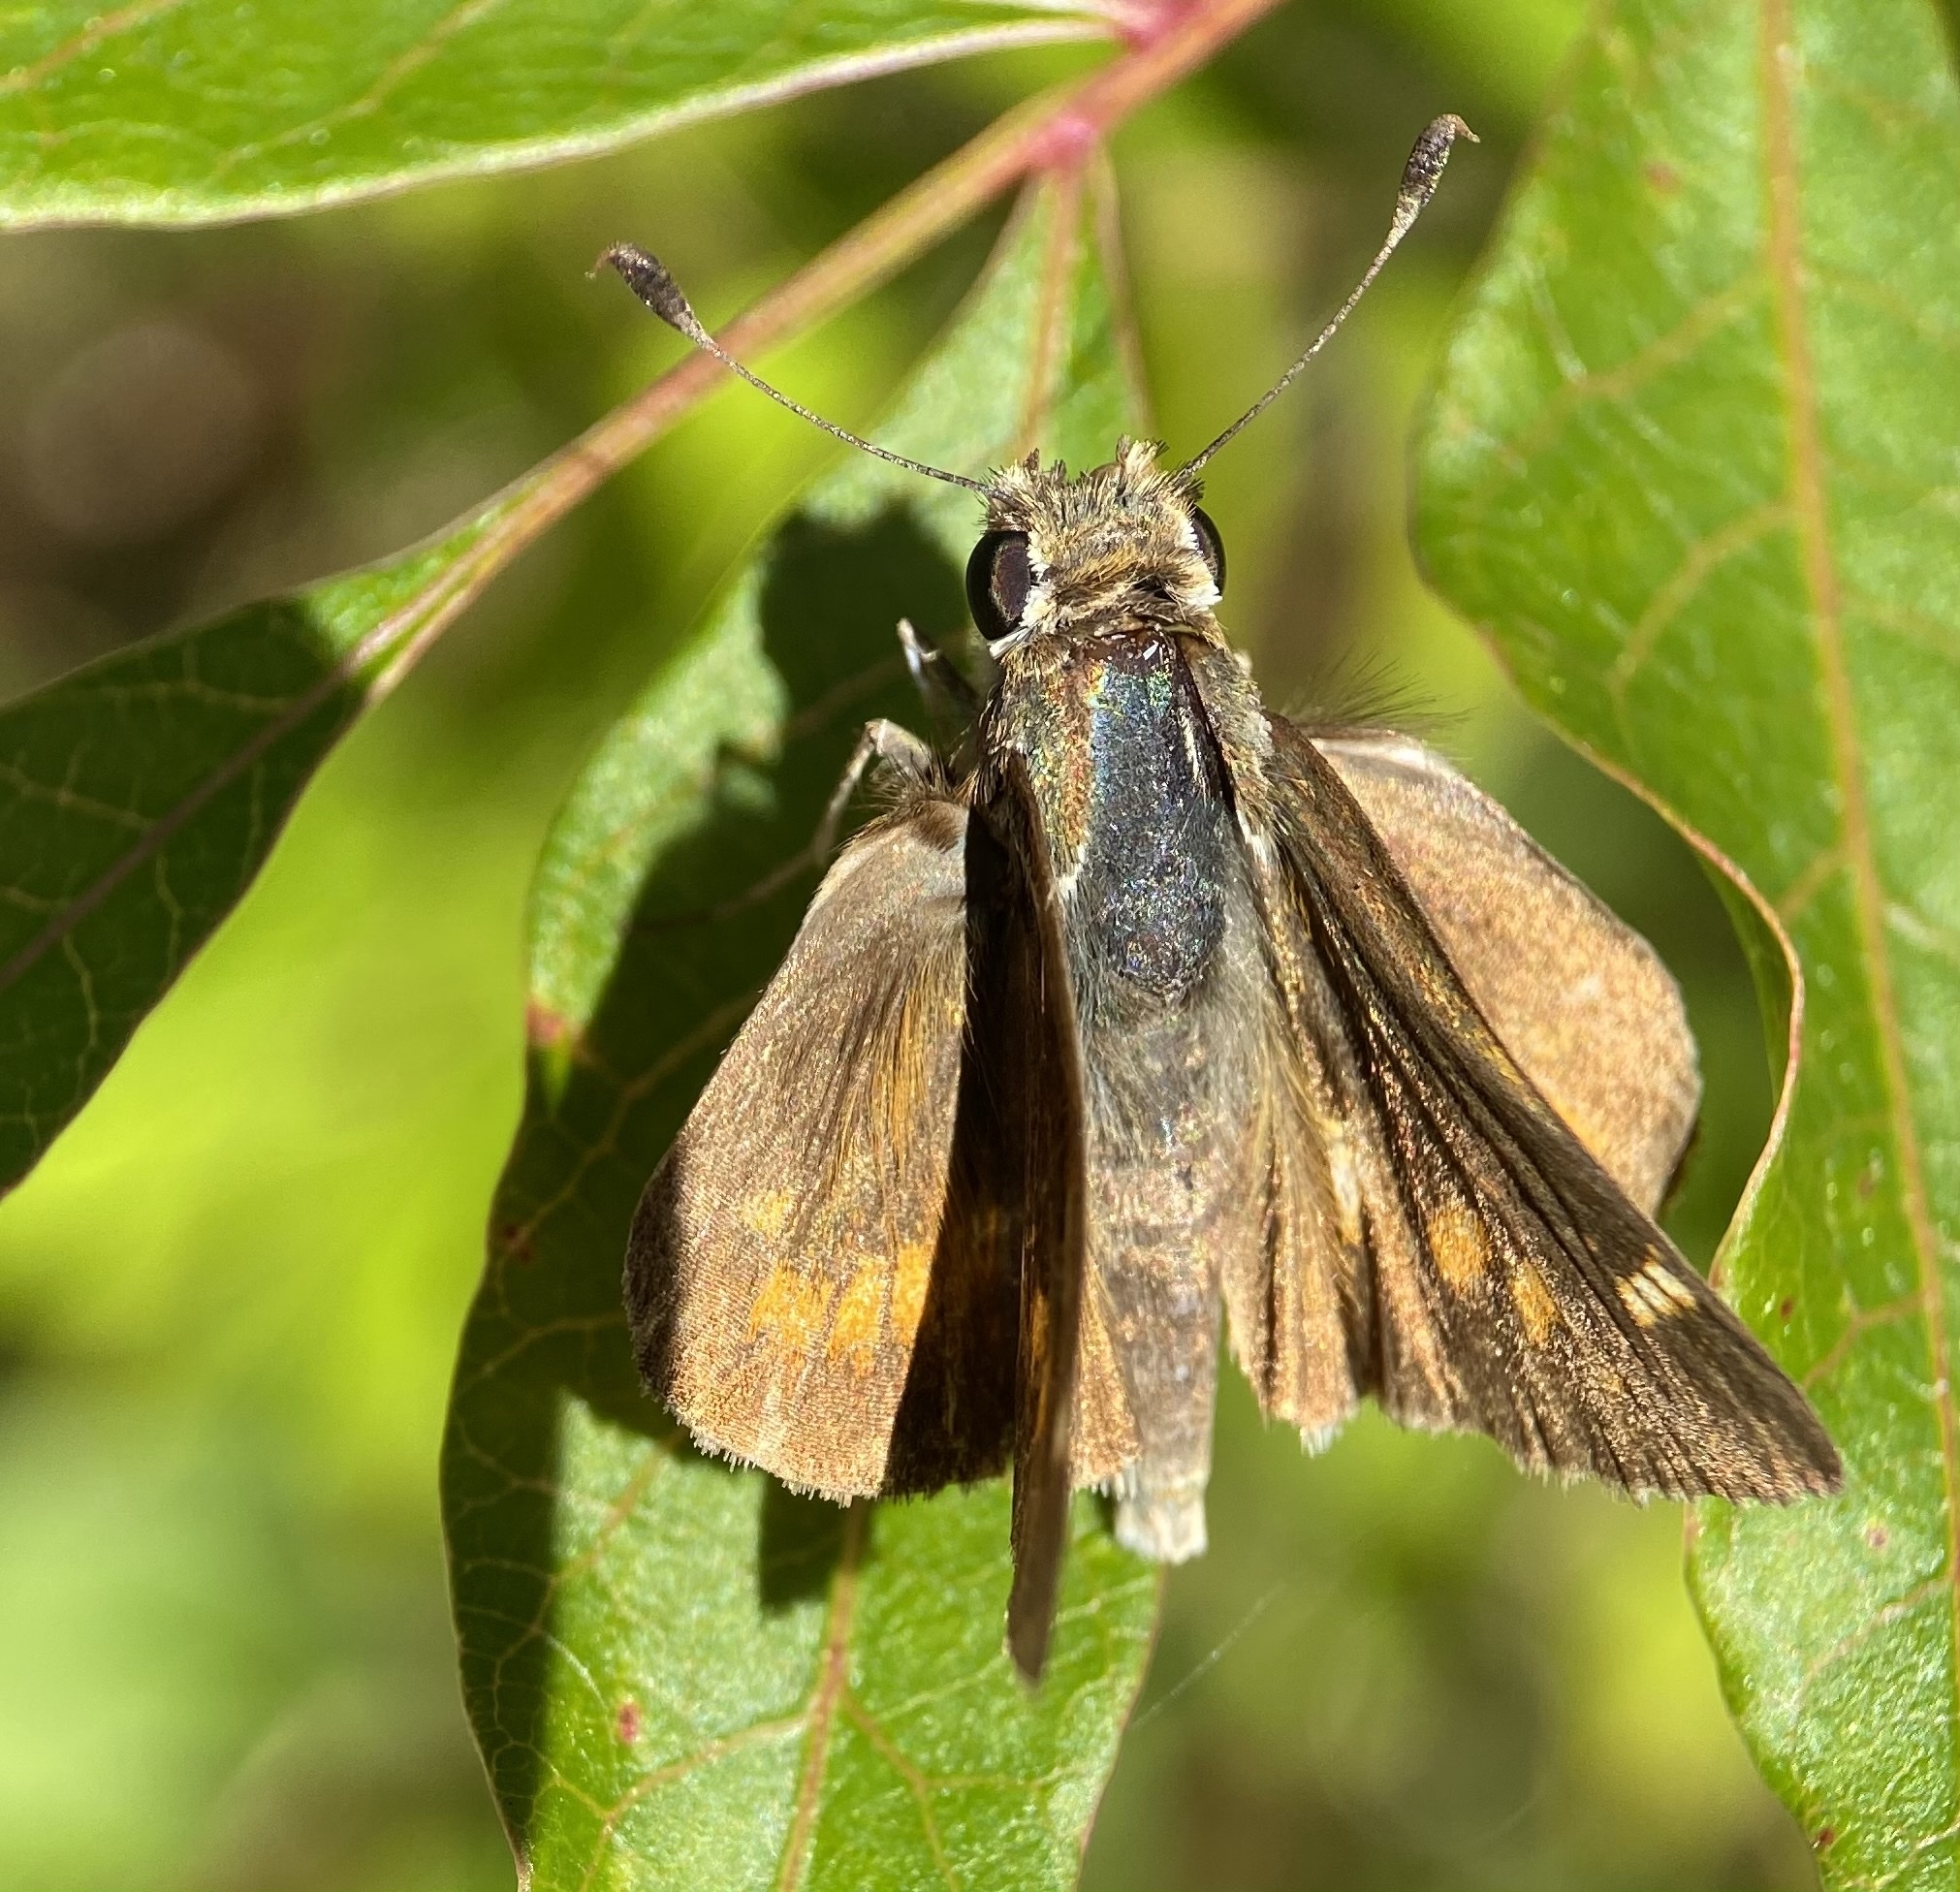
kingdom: Animalia
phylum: Arthropoda
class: Insecta
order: Lepidoptera
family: Hesperiidae
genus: Lon
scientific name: Lon melane
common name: Umber skipper
